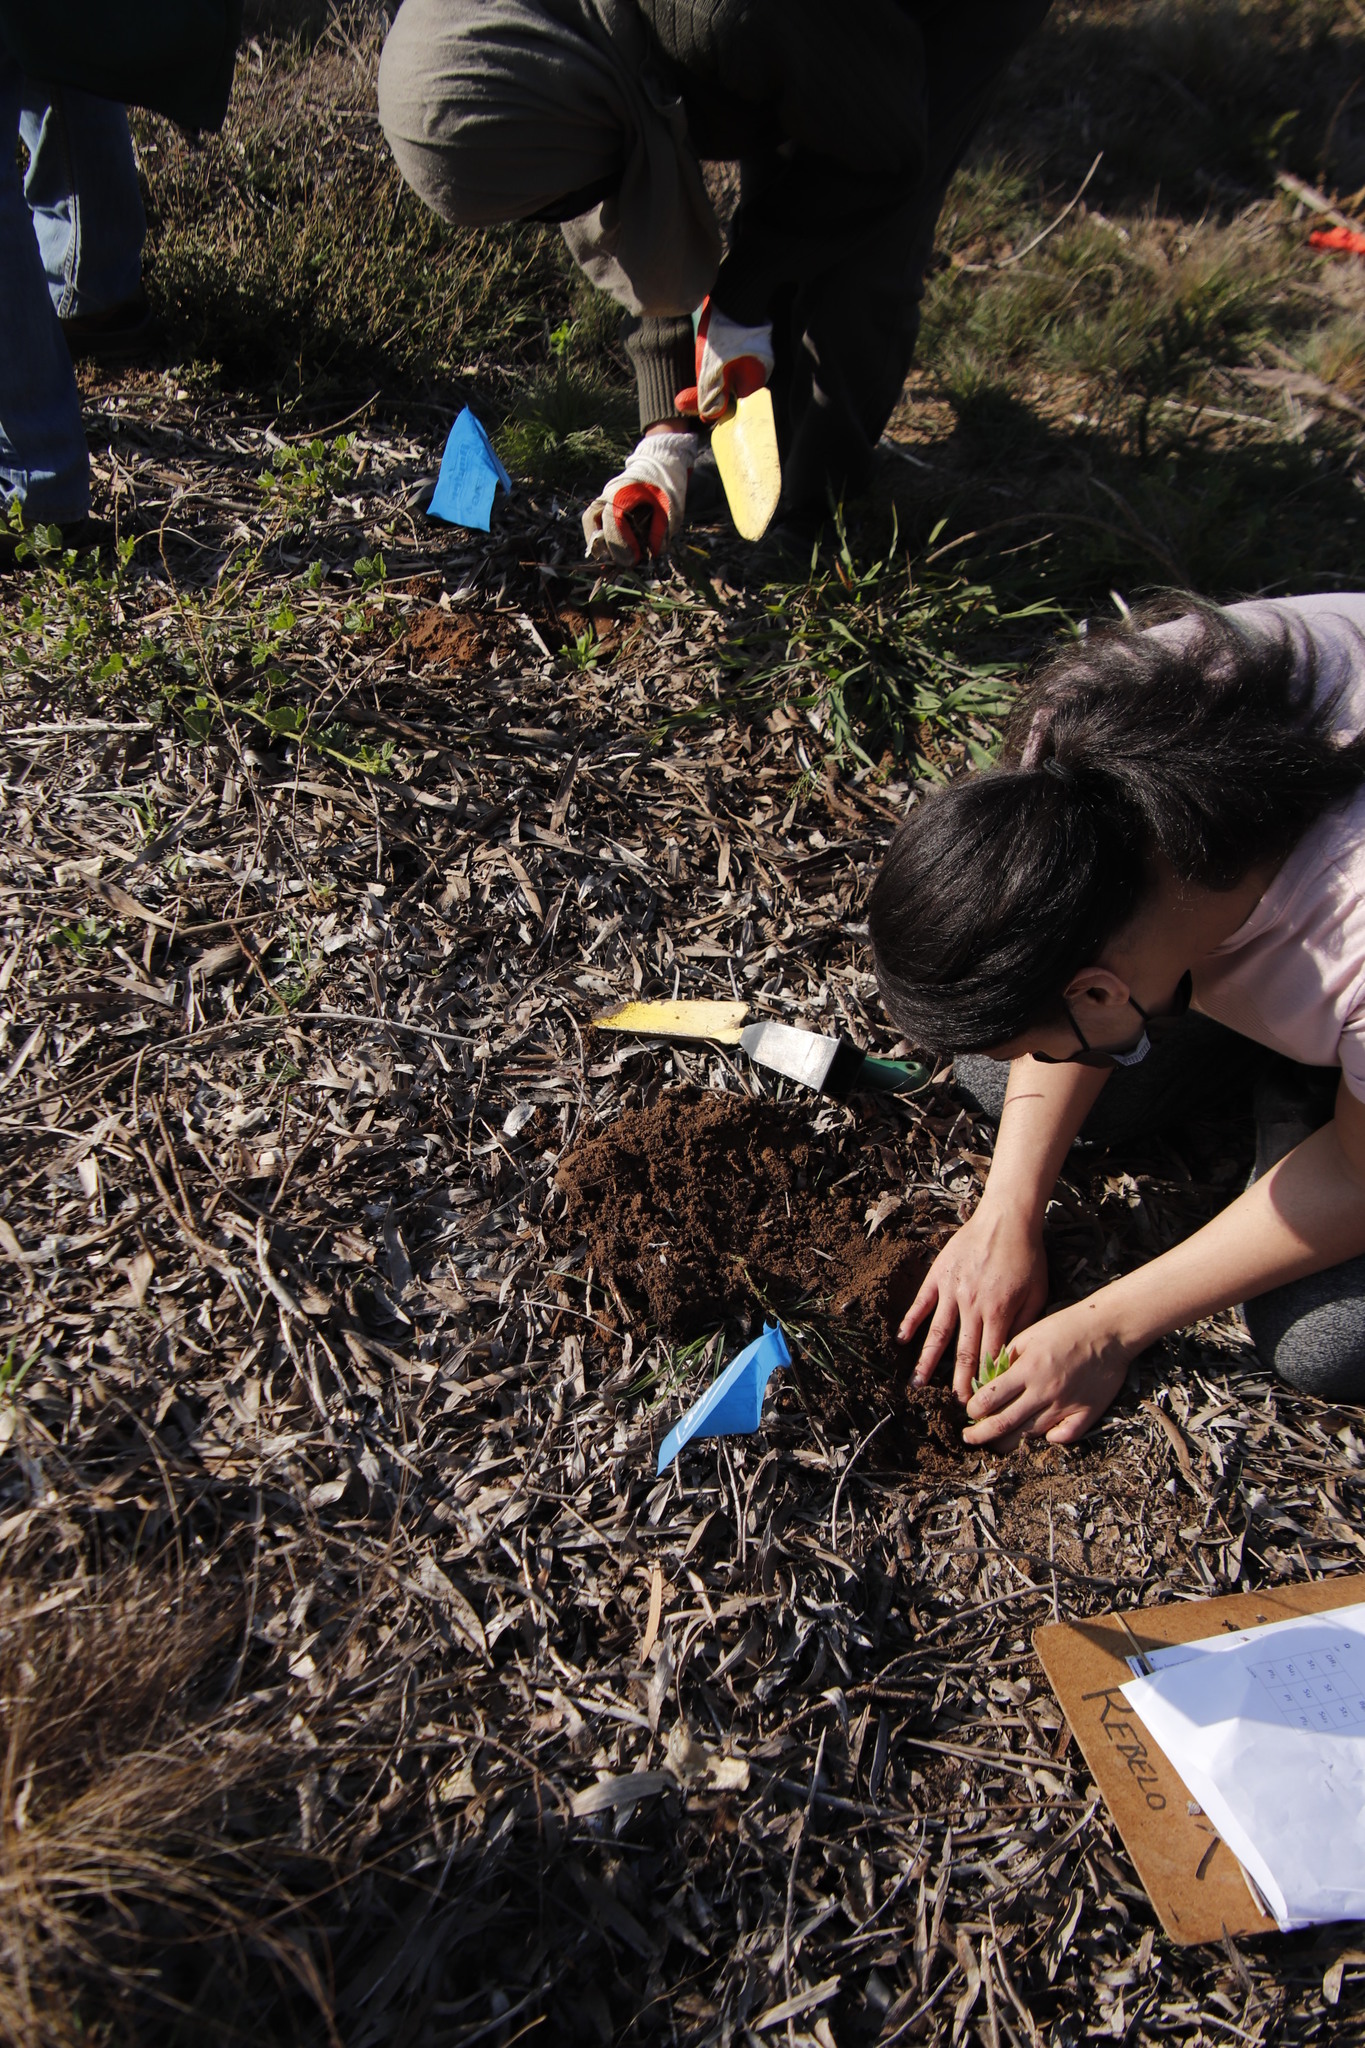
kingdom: Plantae
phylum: Tracheophyta
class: Magnoliopsida
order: Fabales
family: Fabaceae
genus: Acacia
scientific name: Acacia longifolia
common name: Sydney golden wattle
